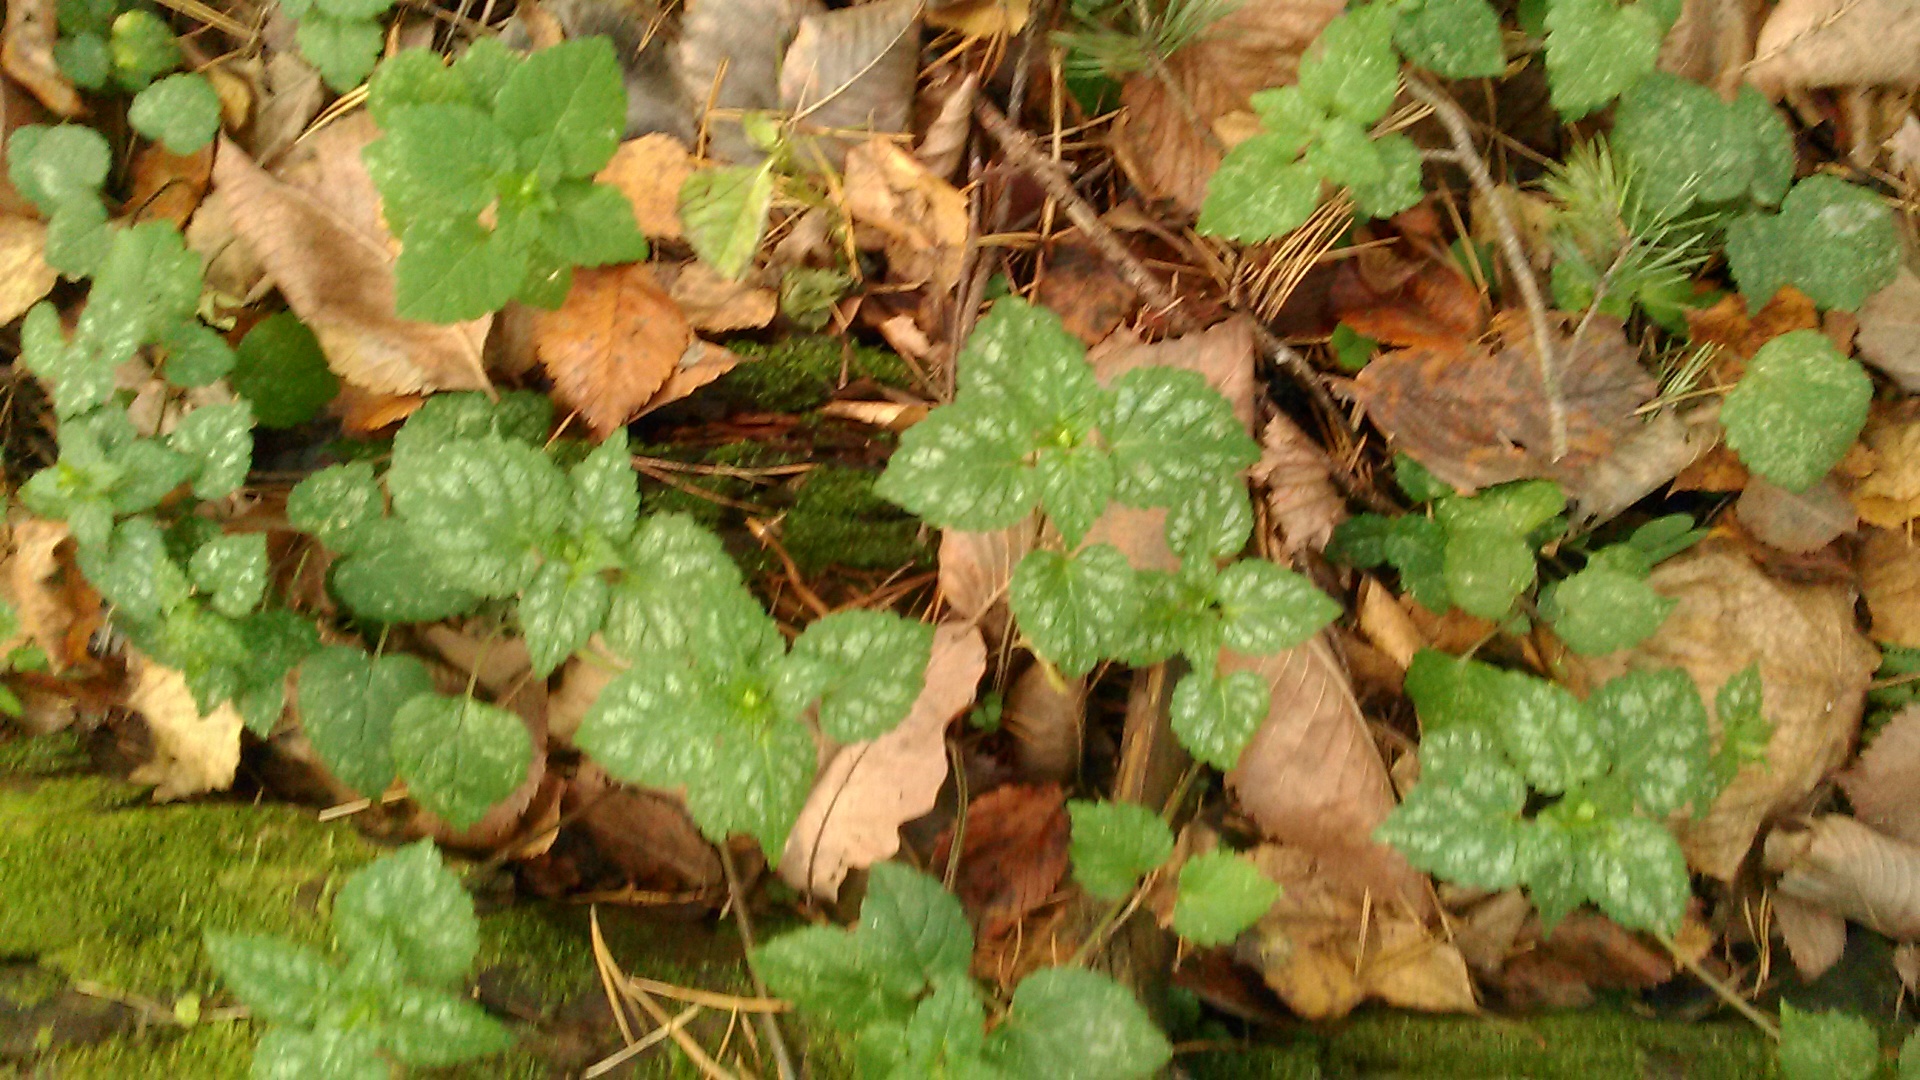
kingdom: Plantae
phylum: Tracheophyta
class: Magnoliopsida
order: Lamiales
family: Lamiaceae
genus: Lamium
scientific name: Lamium galeobdolon
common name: Yellow archangel
